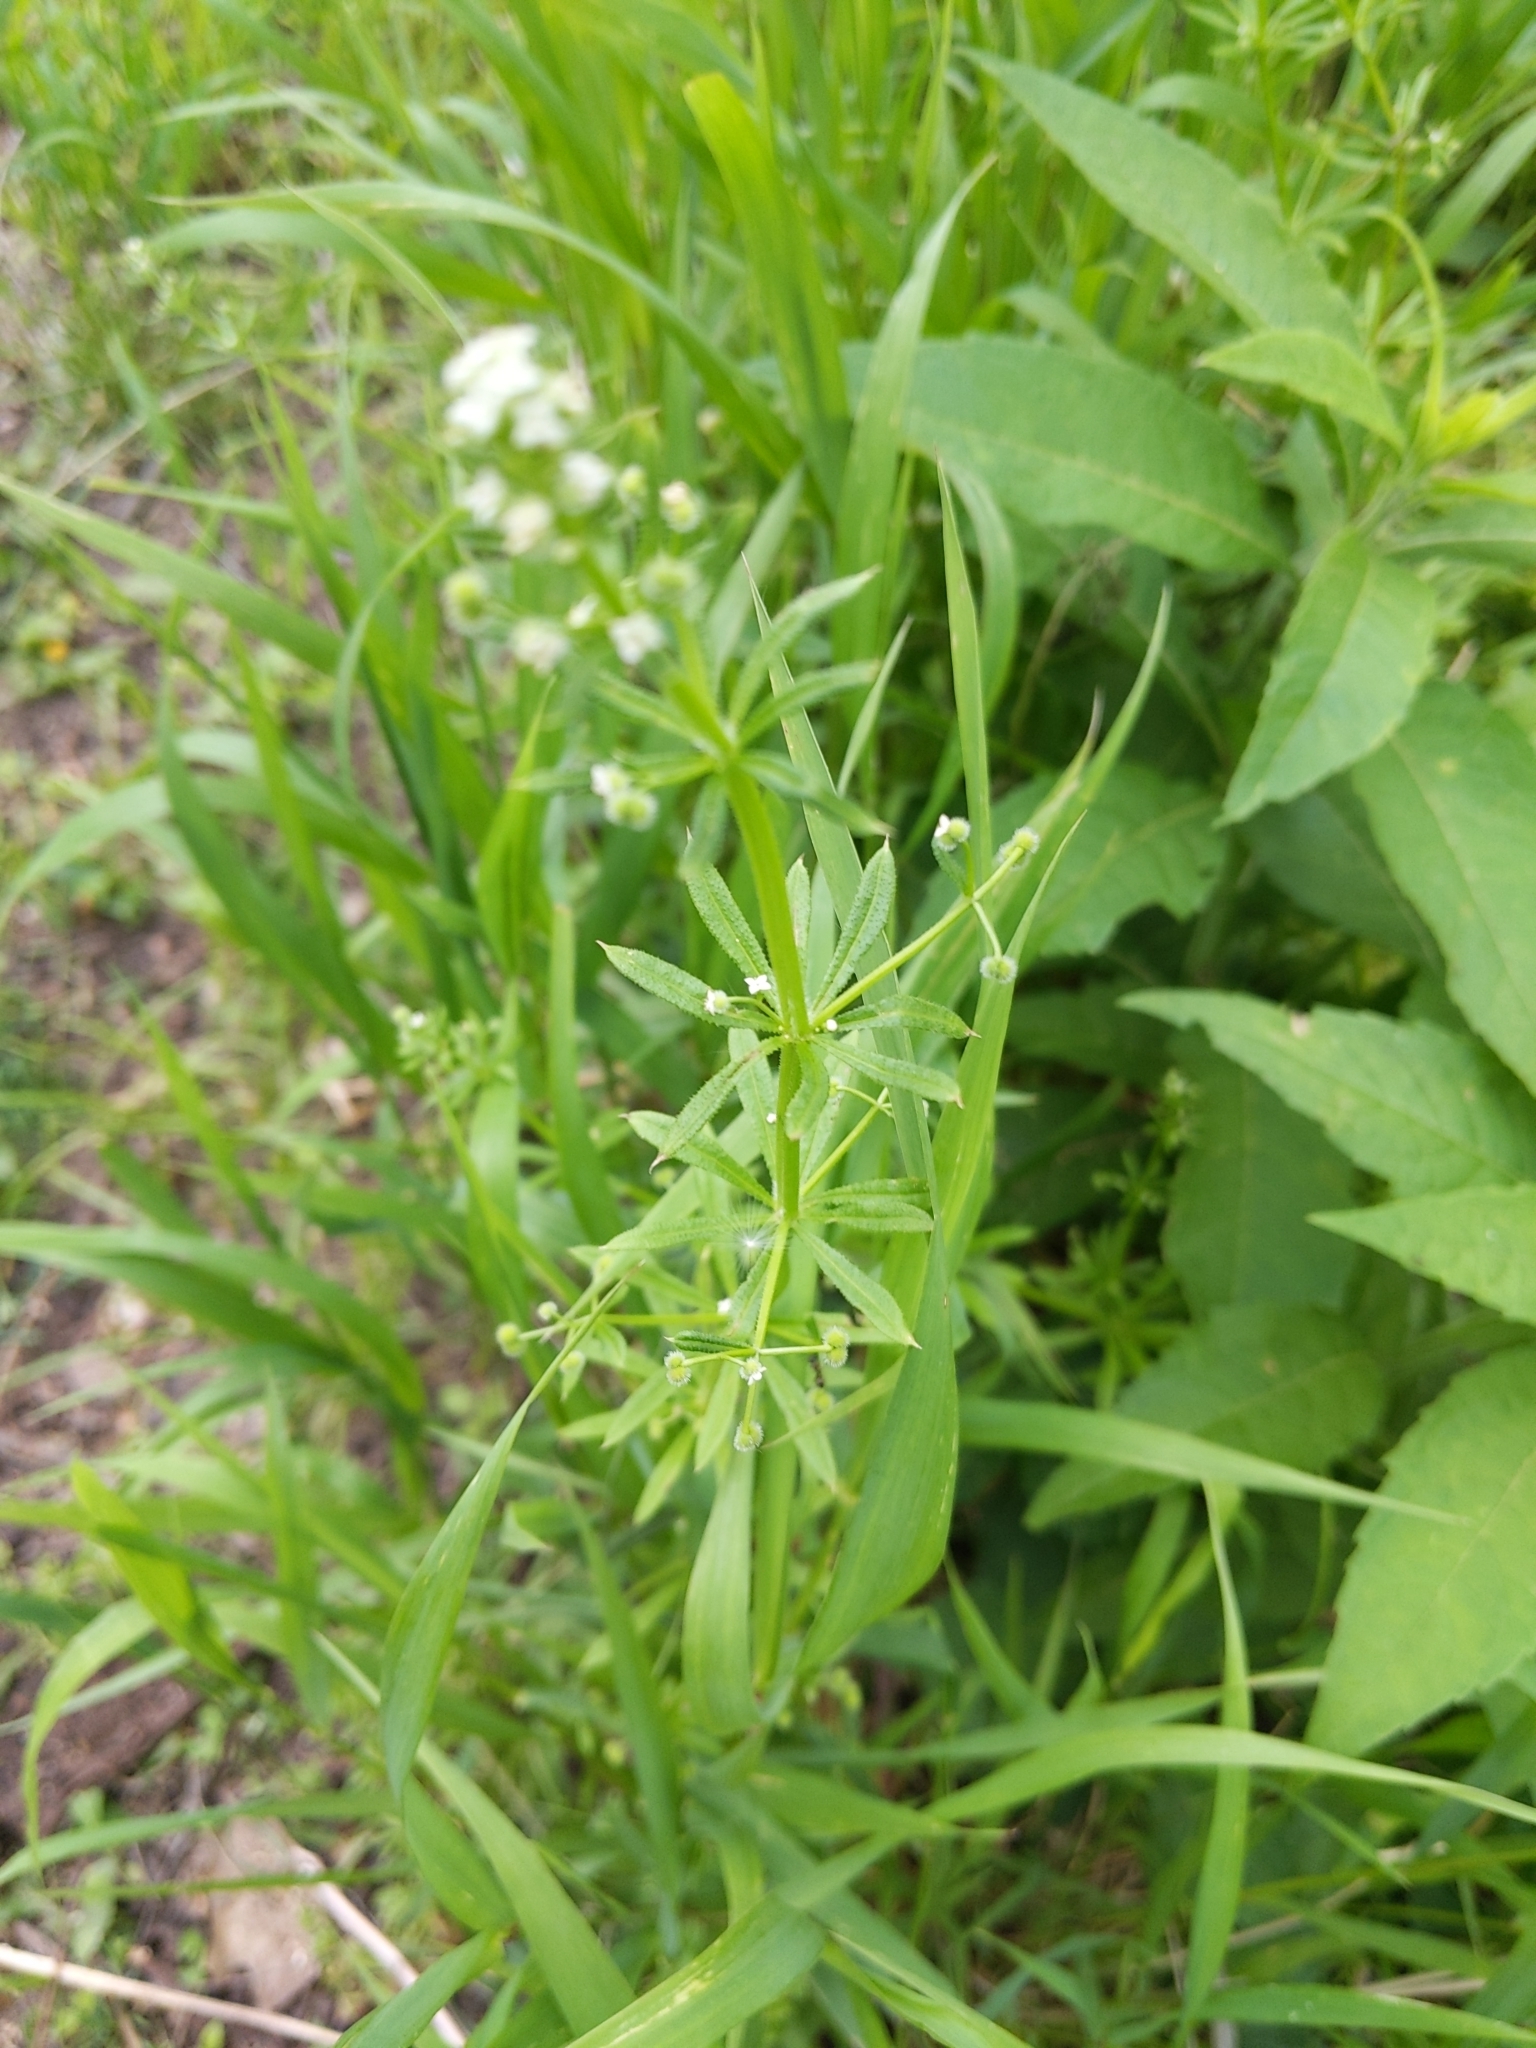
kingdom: Plantae
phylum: Tracheophyta
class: Magnoliopsida
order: Gentianales
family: Rubiaceae
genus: Galium
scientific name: Galium aparine
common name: Cleavers
